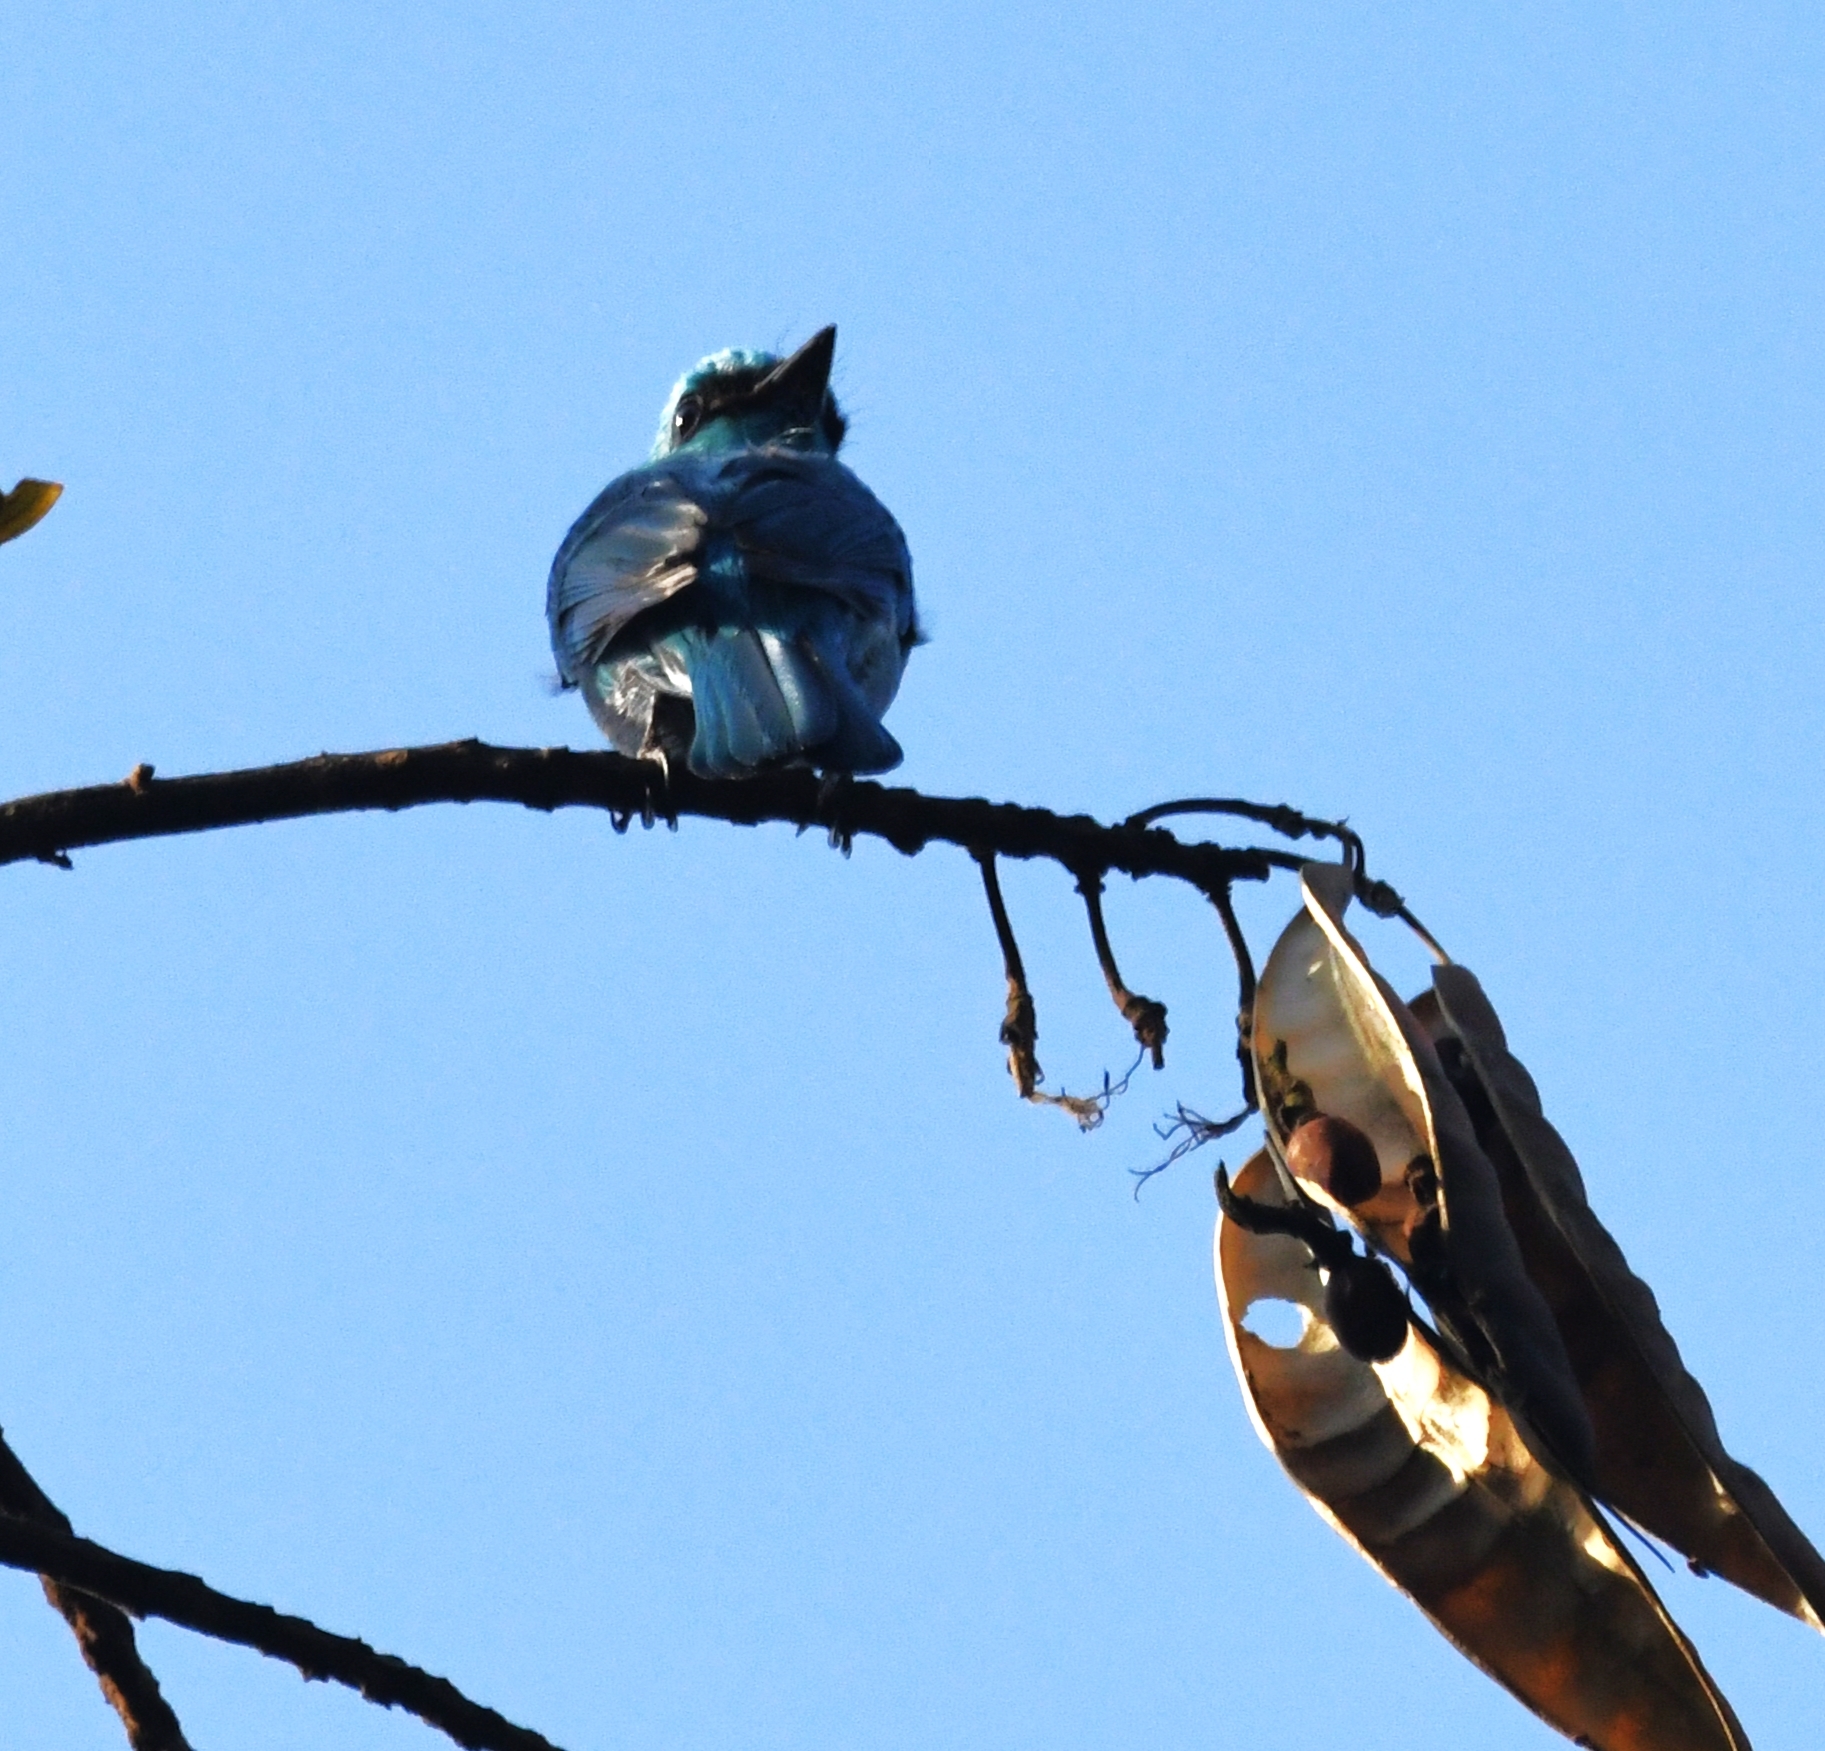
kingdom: Animalia
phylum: Chordata
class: Aves
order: Passeriformes
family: Muscicapidae
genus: Eumyias
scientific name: Eumyias thalassinus
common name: Verditer flycatcher
